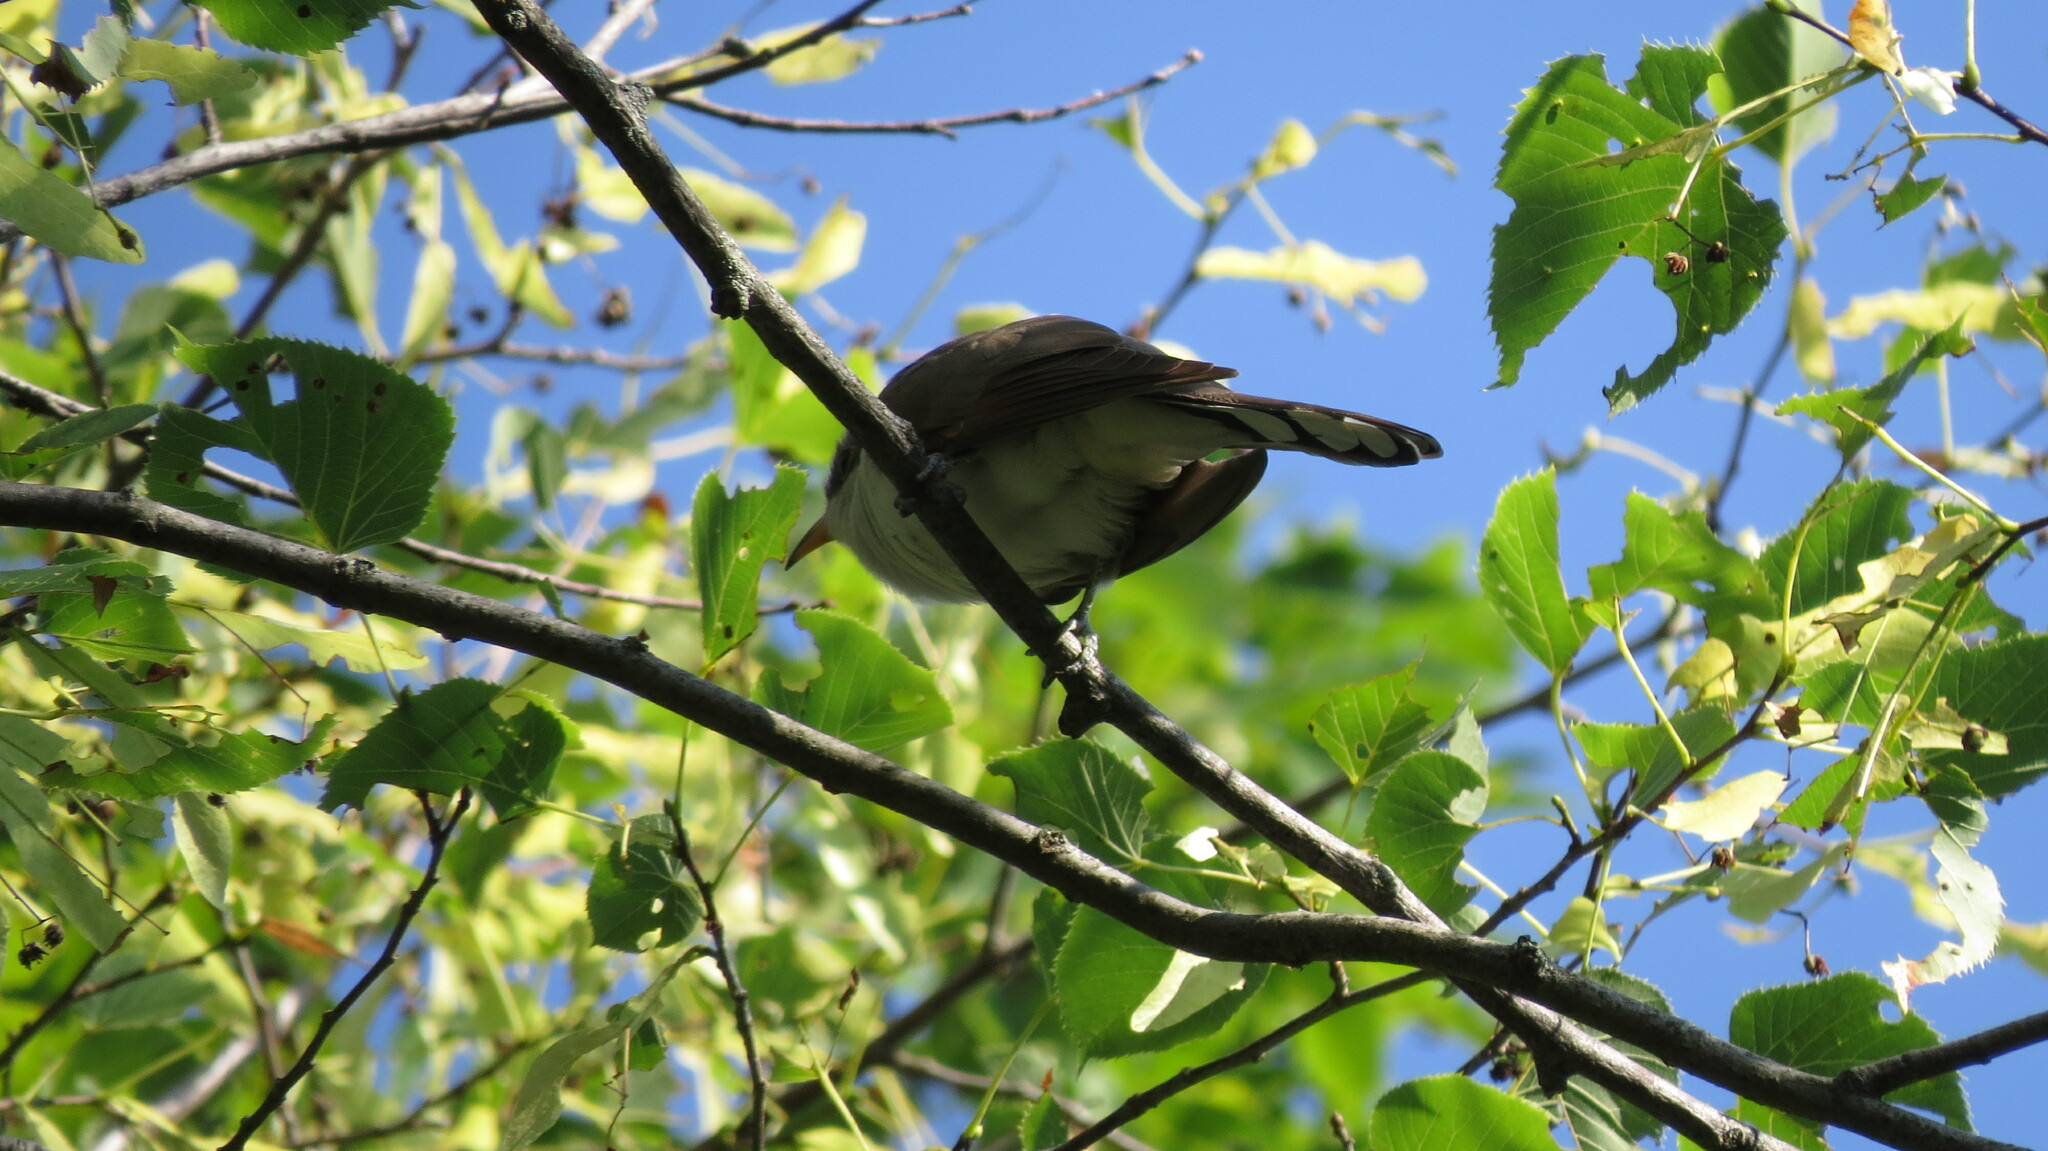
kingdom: Animalia
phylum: Chordata
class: Aves
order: Cuculiformes
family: Cuculidae
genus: Coccyzus
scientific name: Coccyzus americanus
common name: Yellow-billed cuckoo
